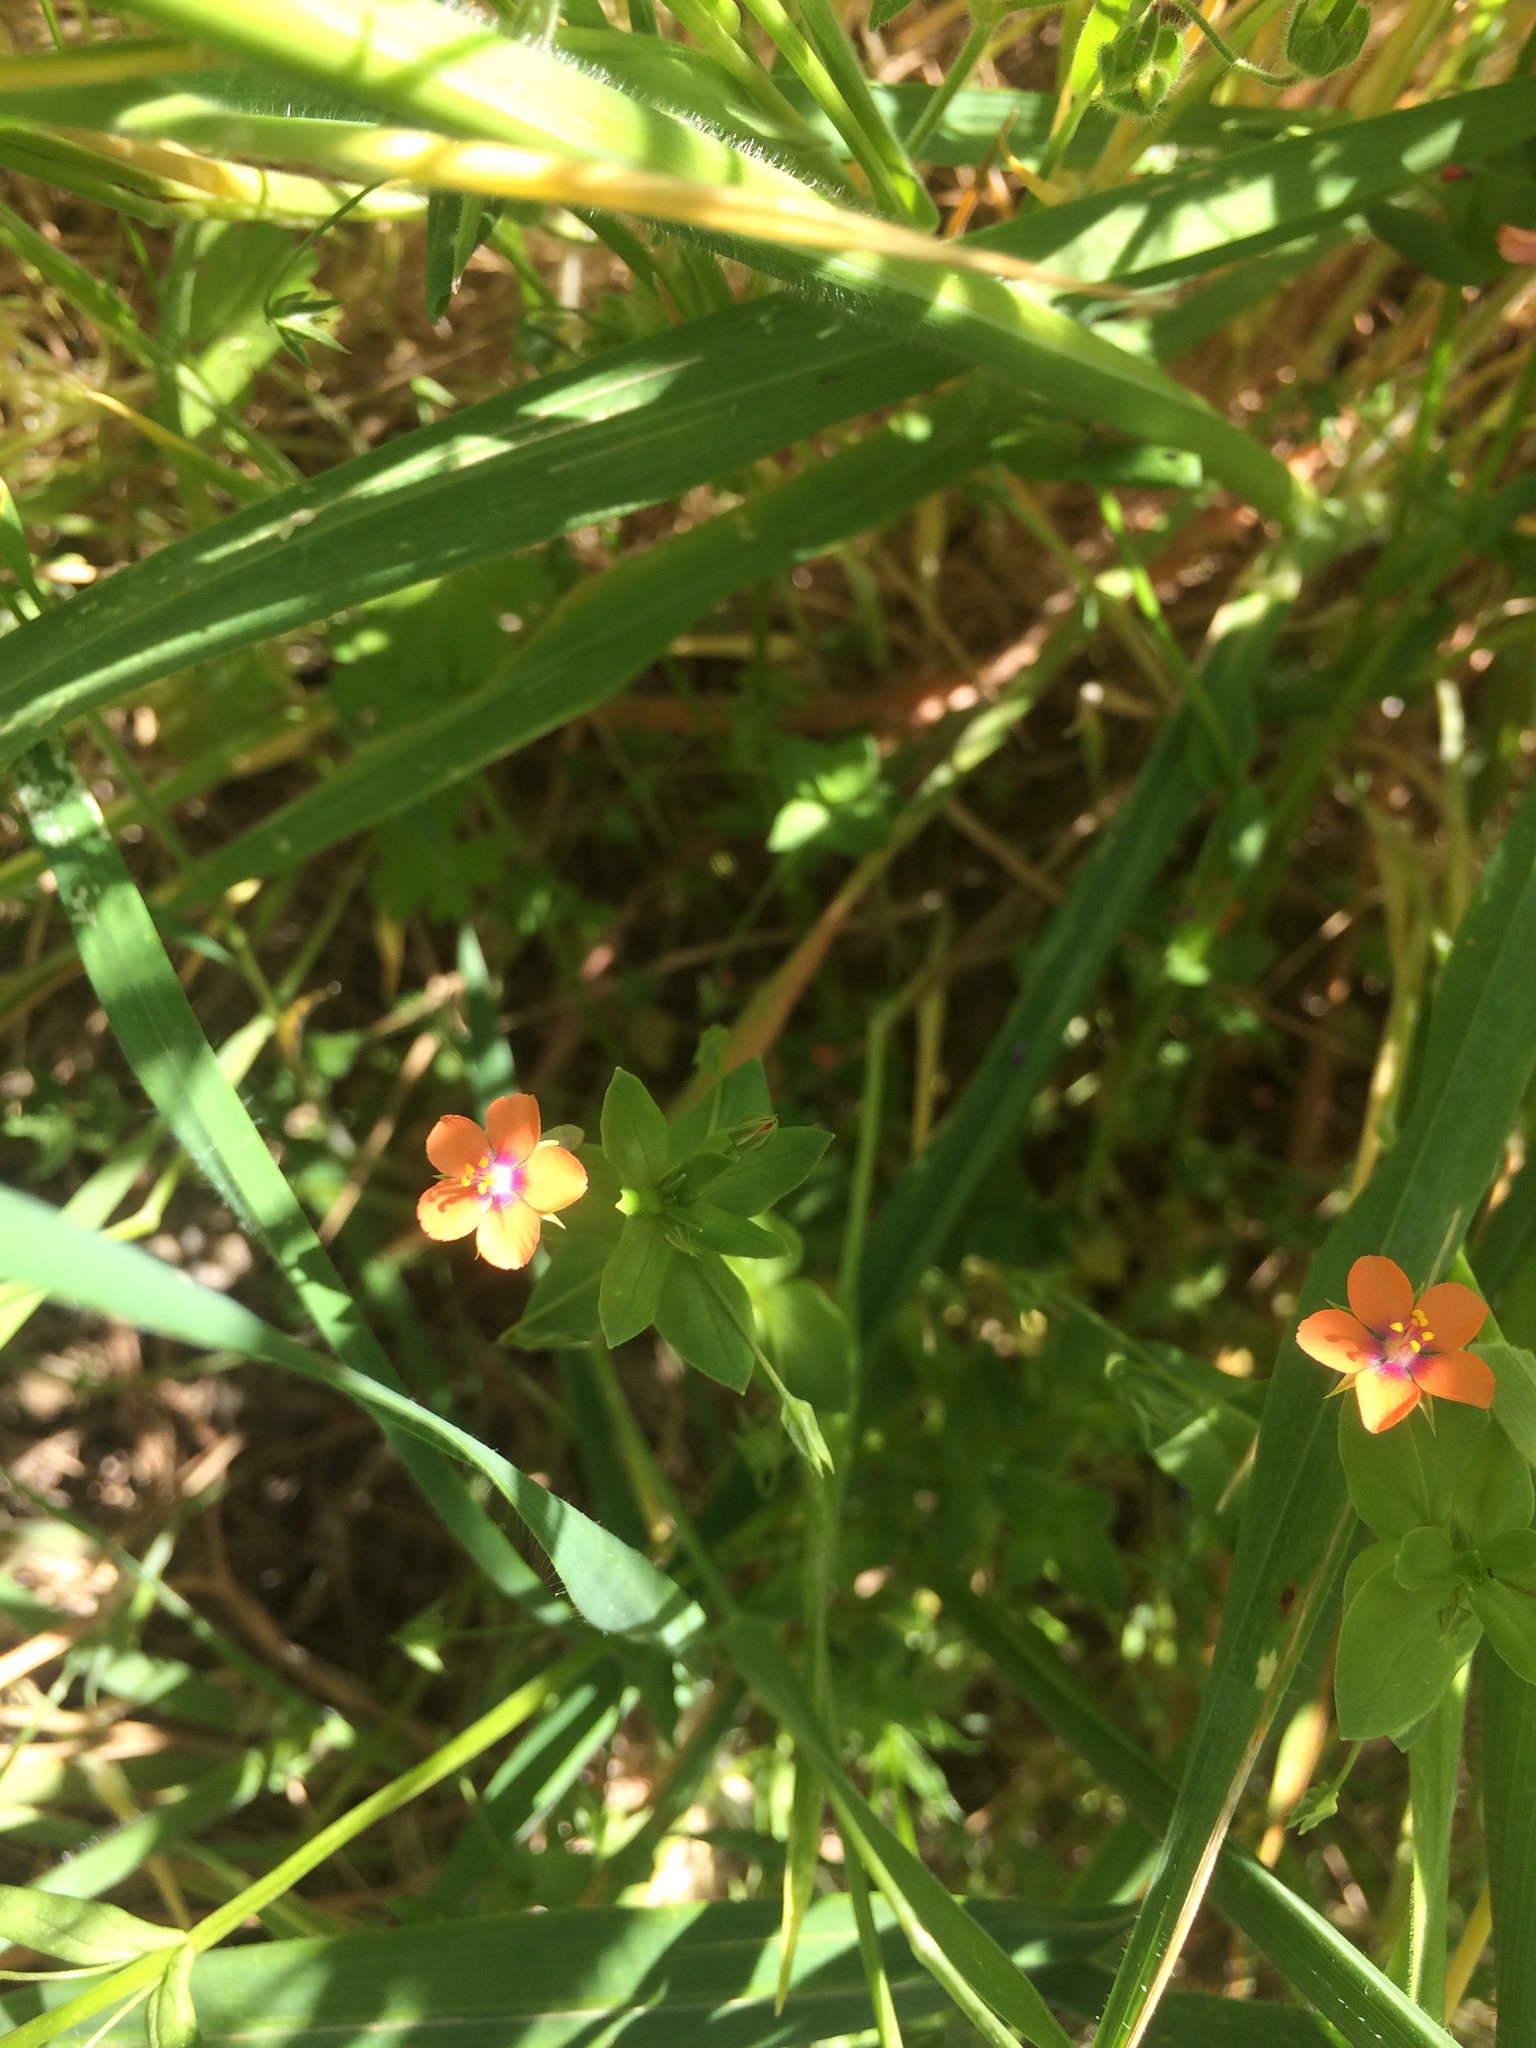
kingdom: Plantae
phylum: Tracheophyta
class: Magnoliopsida
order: Ericales
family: Primulaceae
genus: Lysimachia
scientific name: Lysimachia arvensis
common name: Scarlet pimpernel
